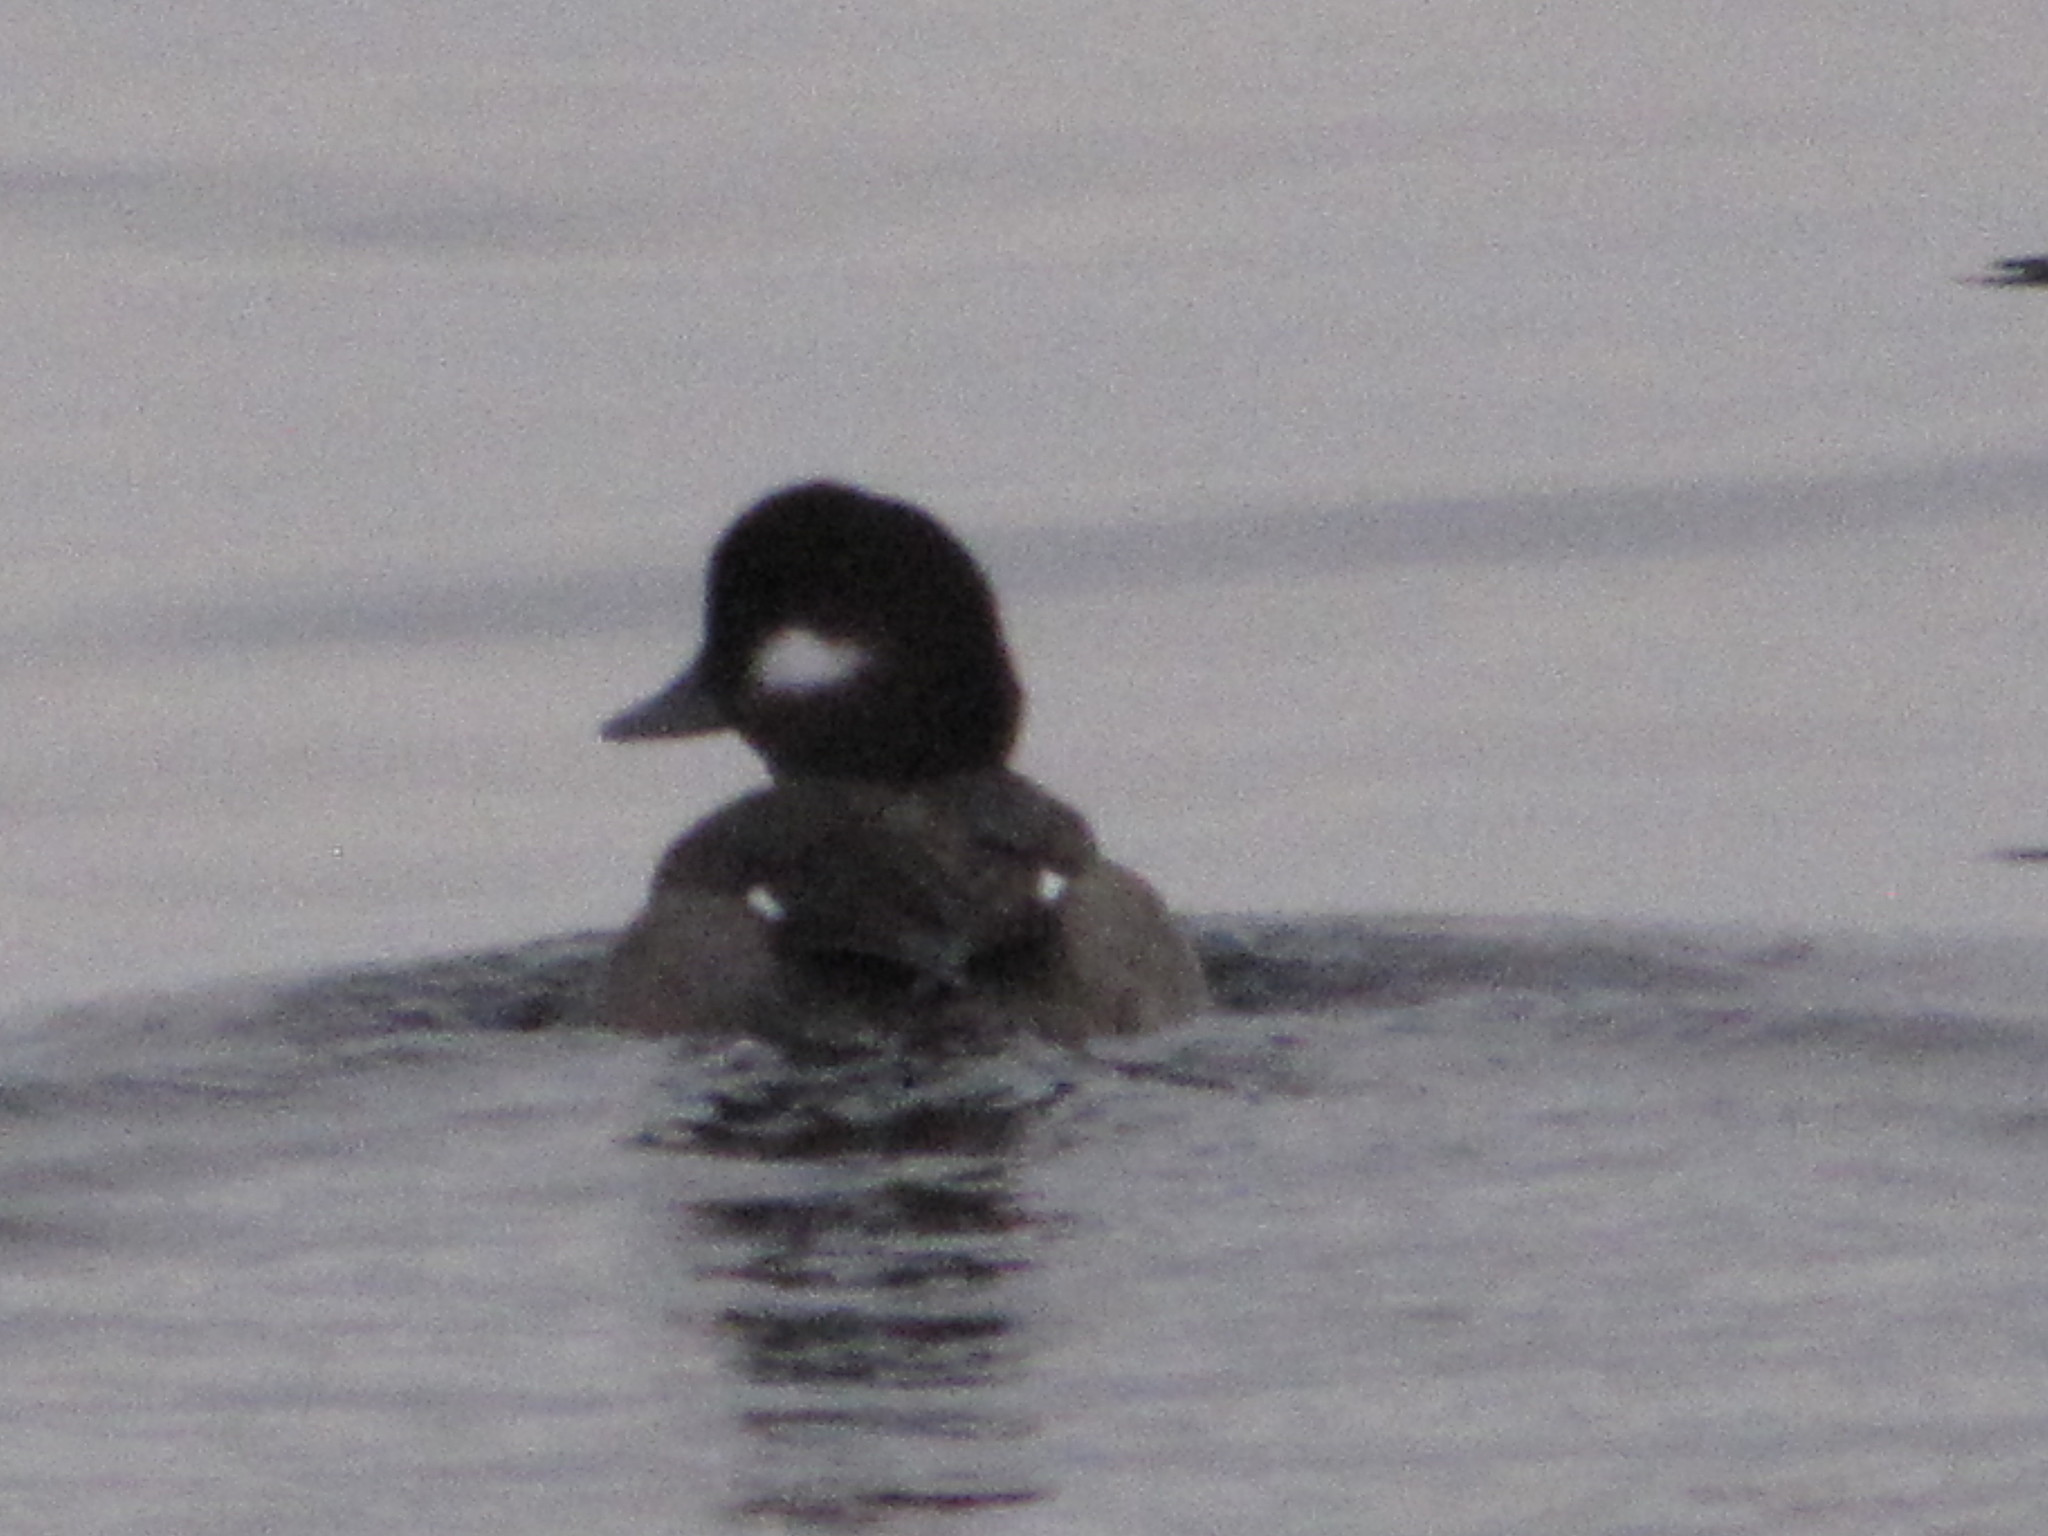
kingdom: Animalia
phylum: Chordata
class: Aves
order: Anseriformes
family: Anatidae
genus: Bucephala
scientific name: Bucephala albeola
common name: Bufflehead
